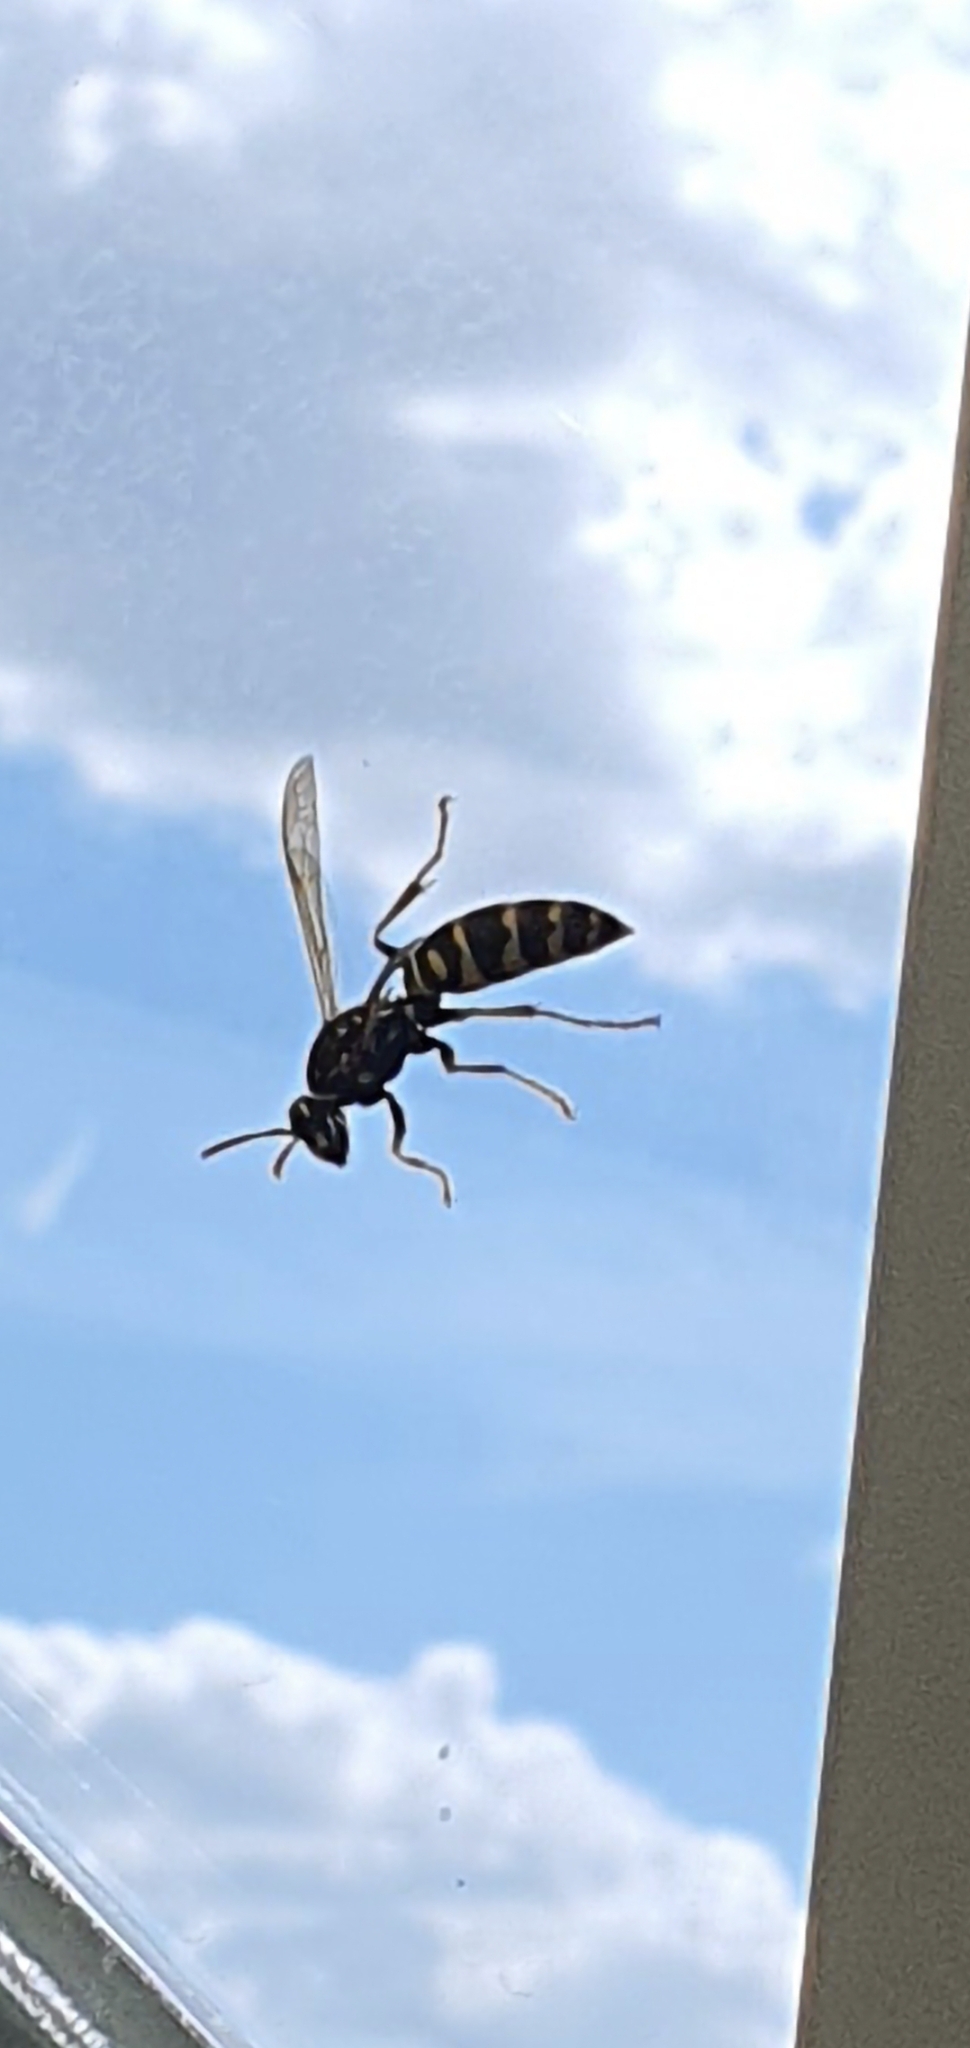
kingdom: Animalia
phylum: Arthropoda
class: Insecta
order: Hymenoptera
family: Eumenidae
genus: Polistes
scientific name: Polistes dominula
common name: Paper wasp
